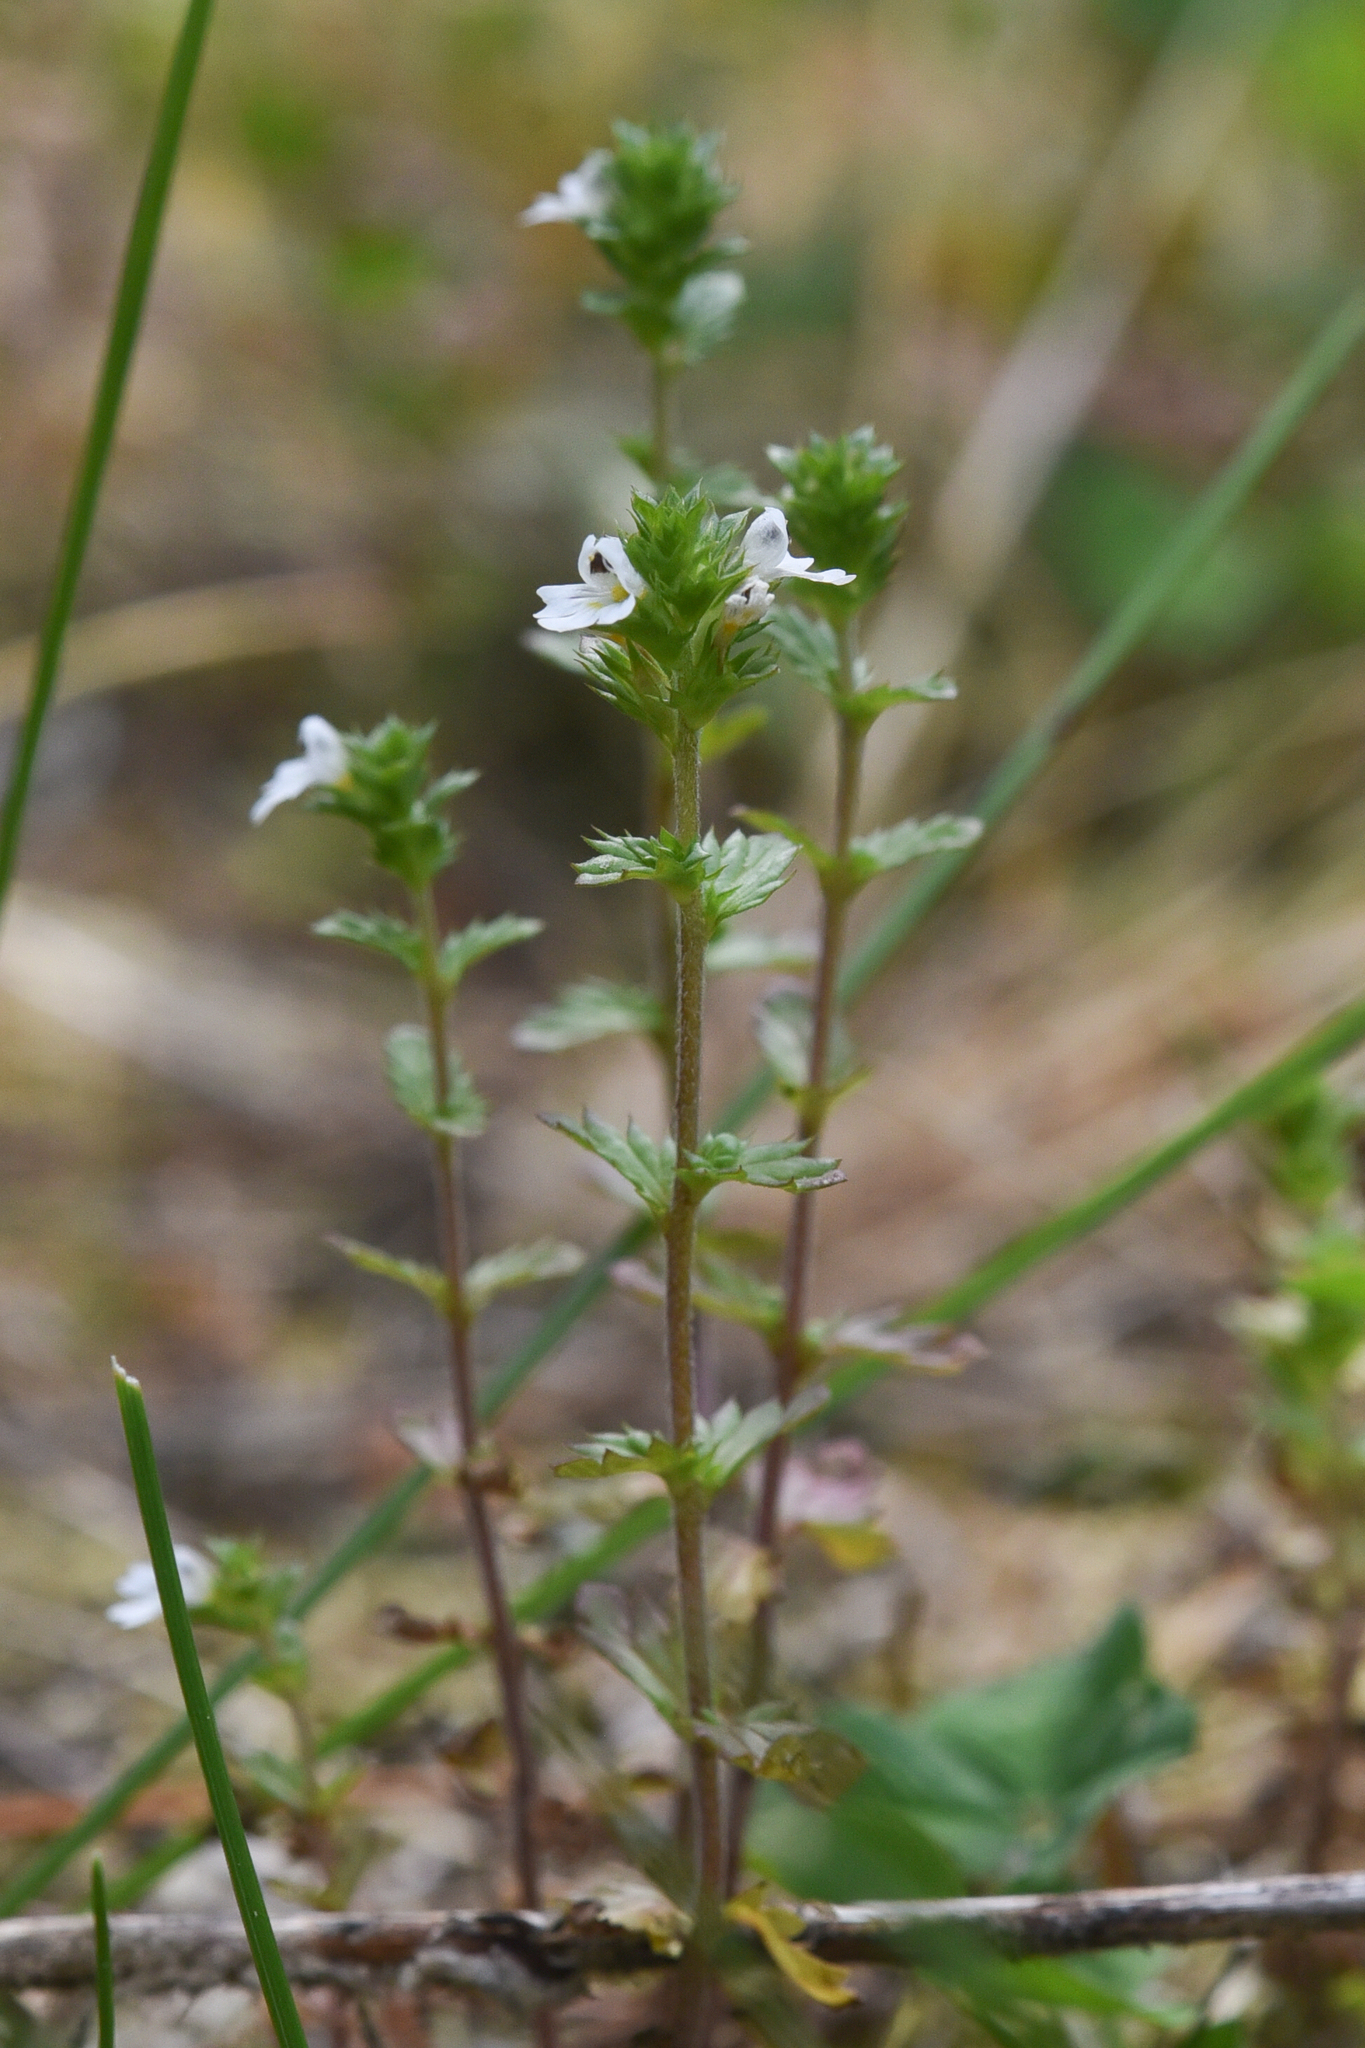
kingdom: Plantae
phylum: Tracheophyta
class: Magnoliopsida
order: Lamiales
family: Orobanchaceae
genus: Euphrasia
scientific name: Euphrasia nemorosa
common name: Common eyebright
